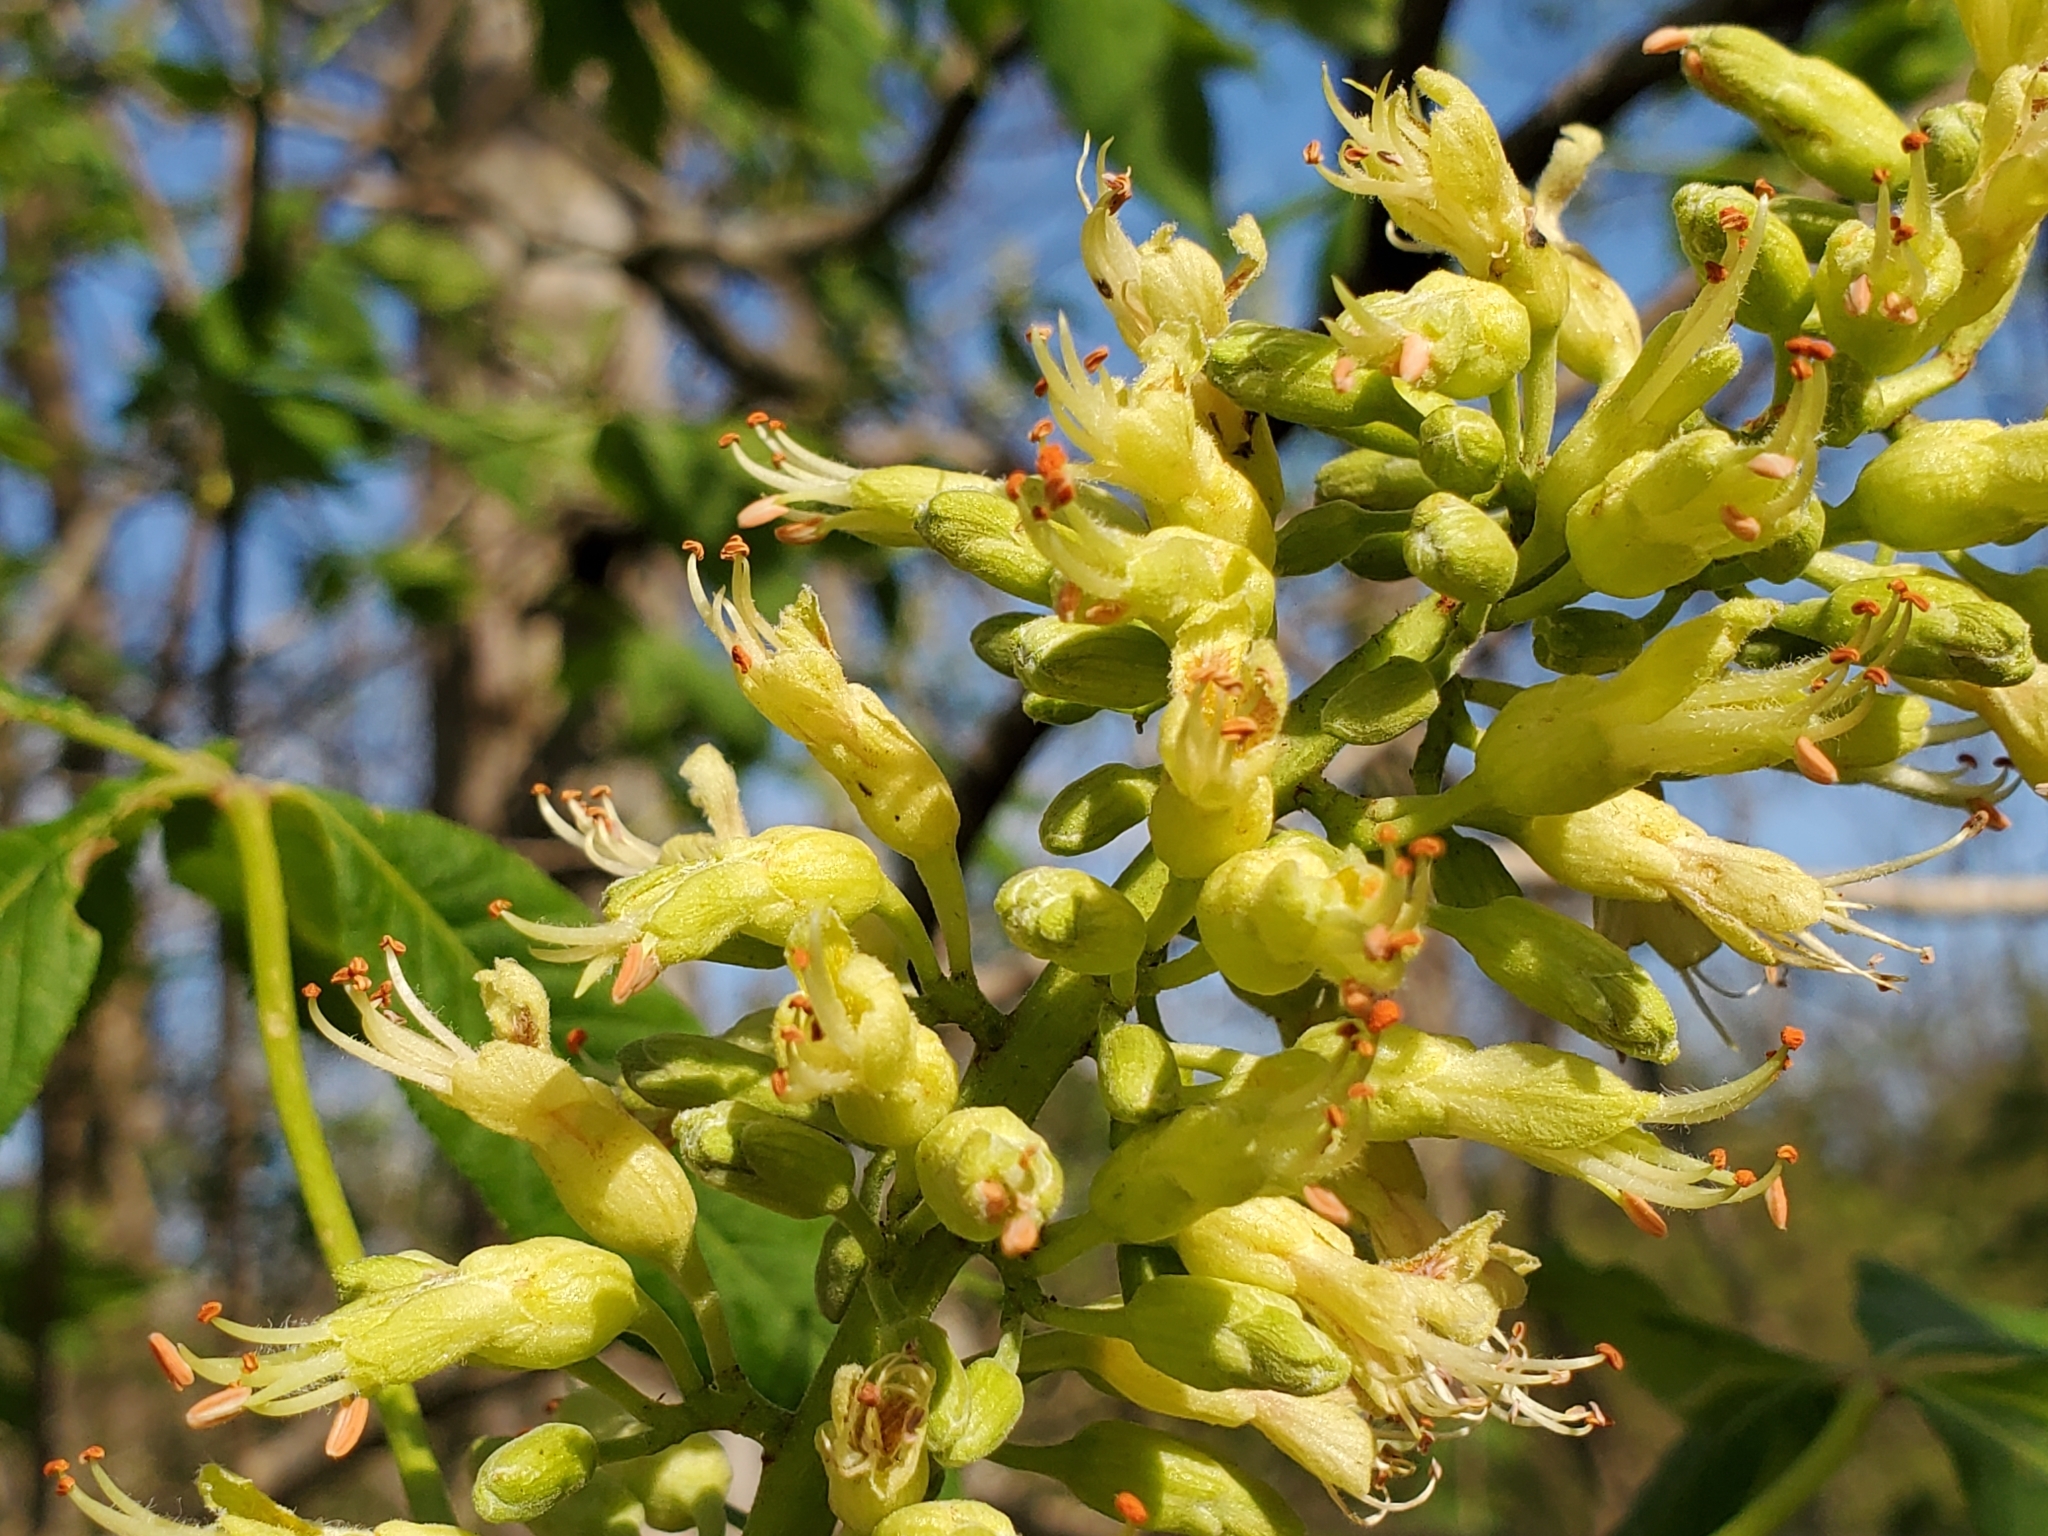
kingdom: Plantae
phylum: Tracheophyta
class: Magnoliopsida
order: Sapindales
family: Sapindaceae
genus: Aesculus
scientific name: Aesculus glabra
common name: Ohio buckeye
